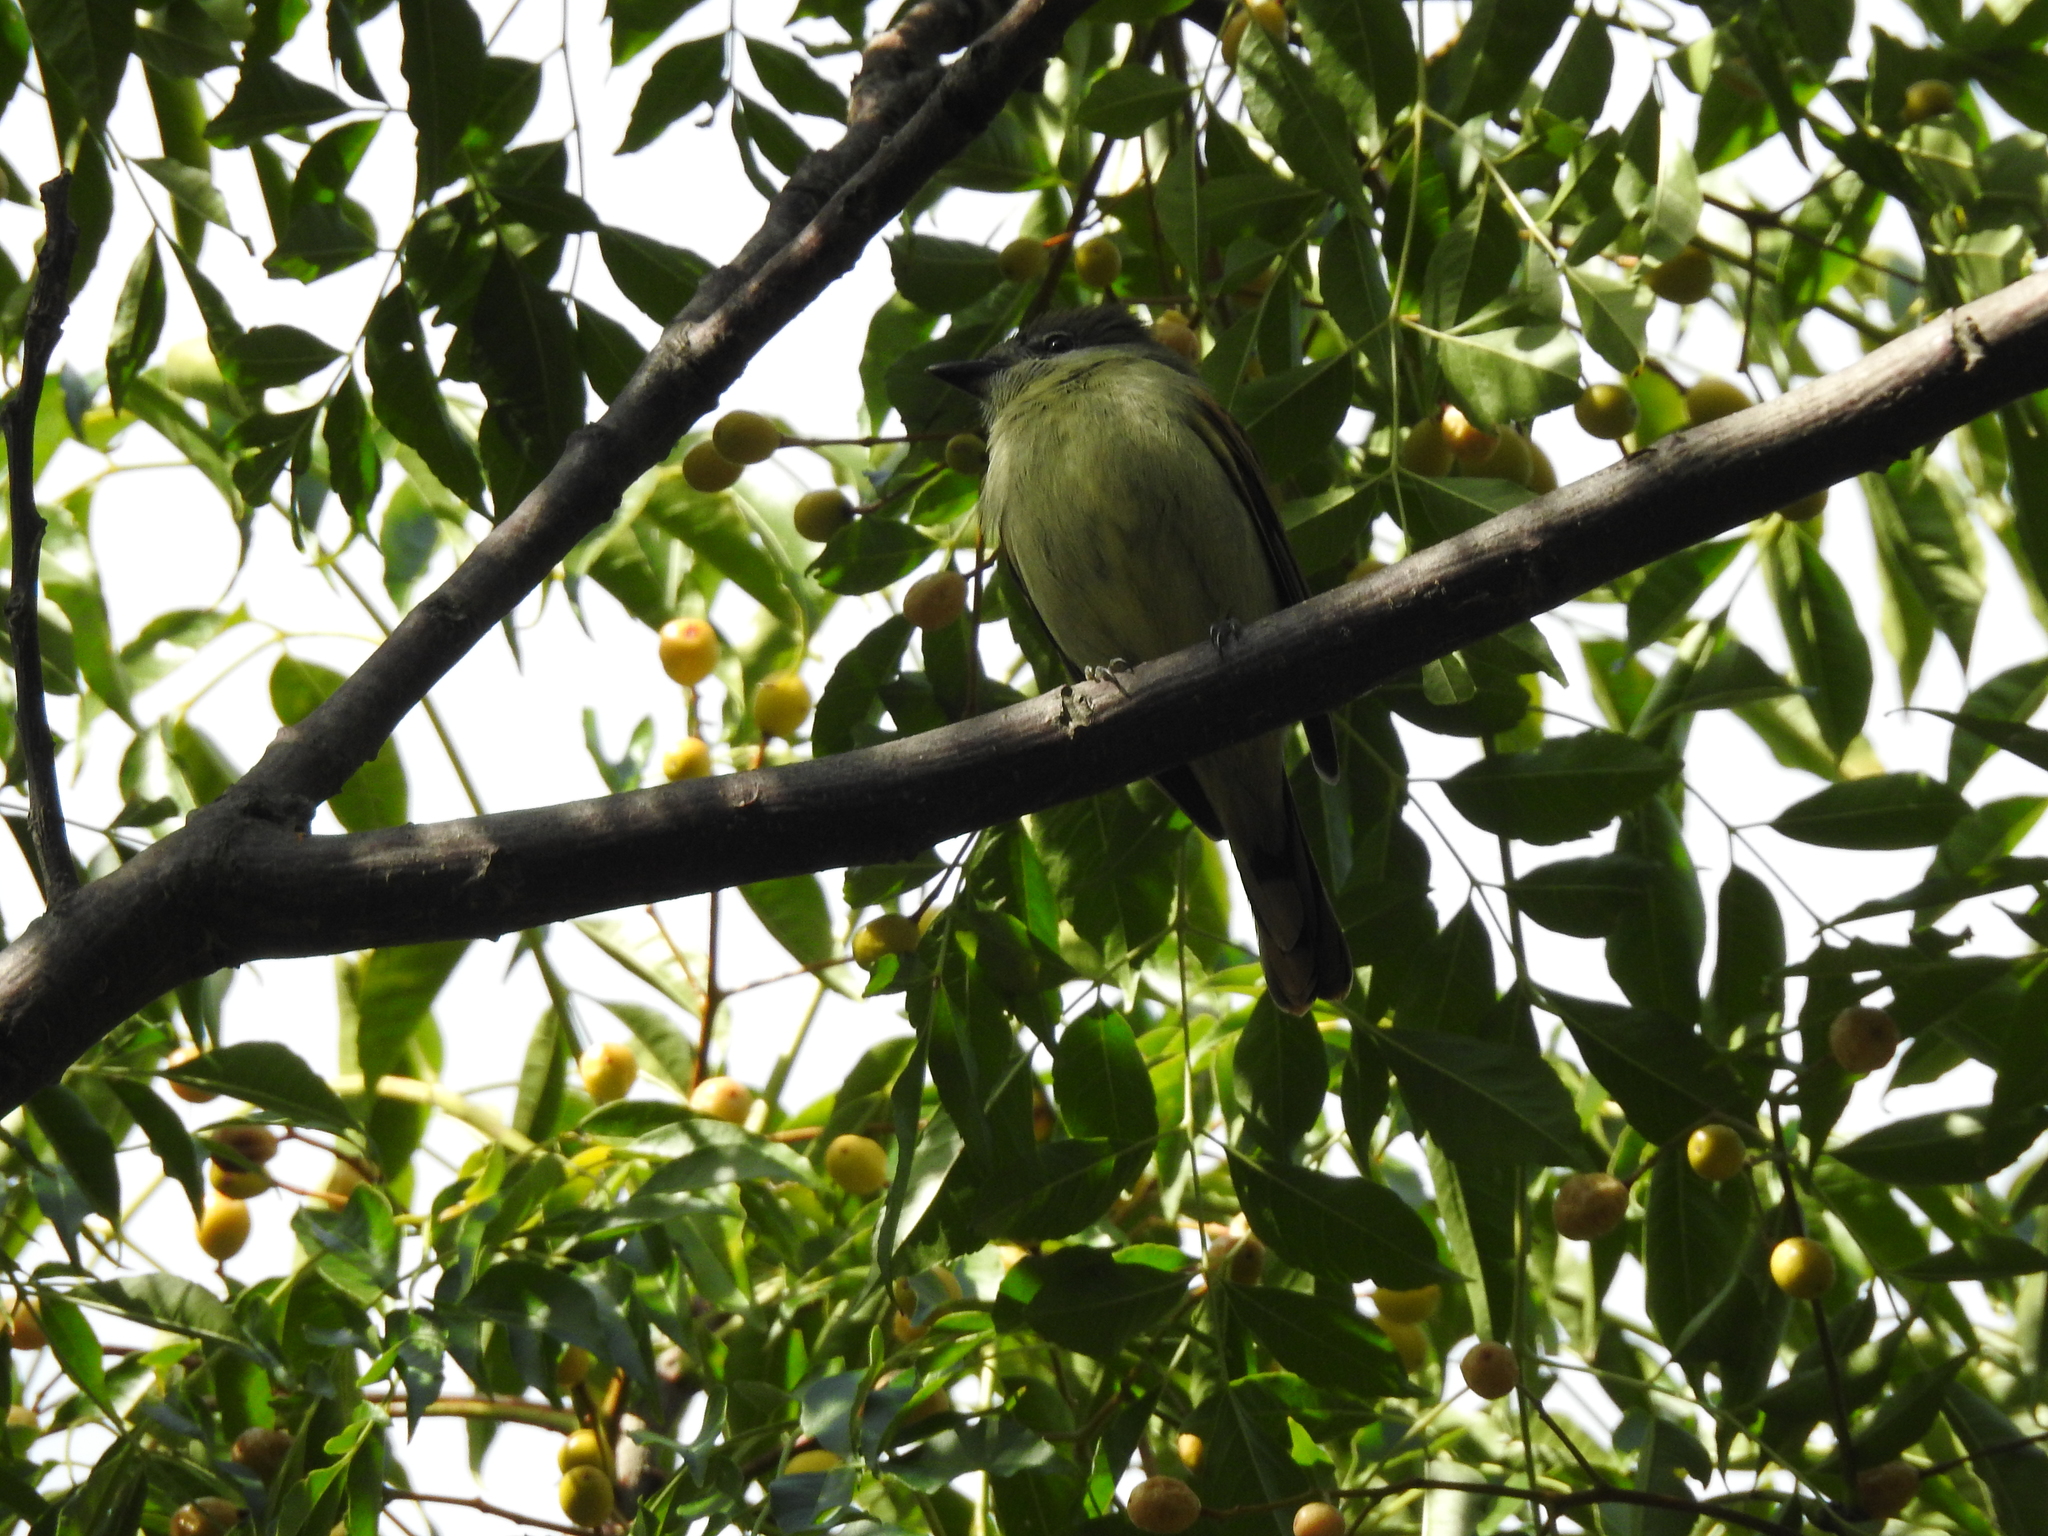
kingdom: Animalia
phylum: Chordata
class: Aves
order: Passeriformes
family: Cotingidae
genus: Pachyramphus
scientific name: Pachyramphus polychopterus
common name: White-winged becard
